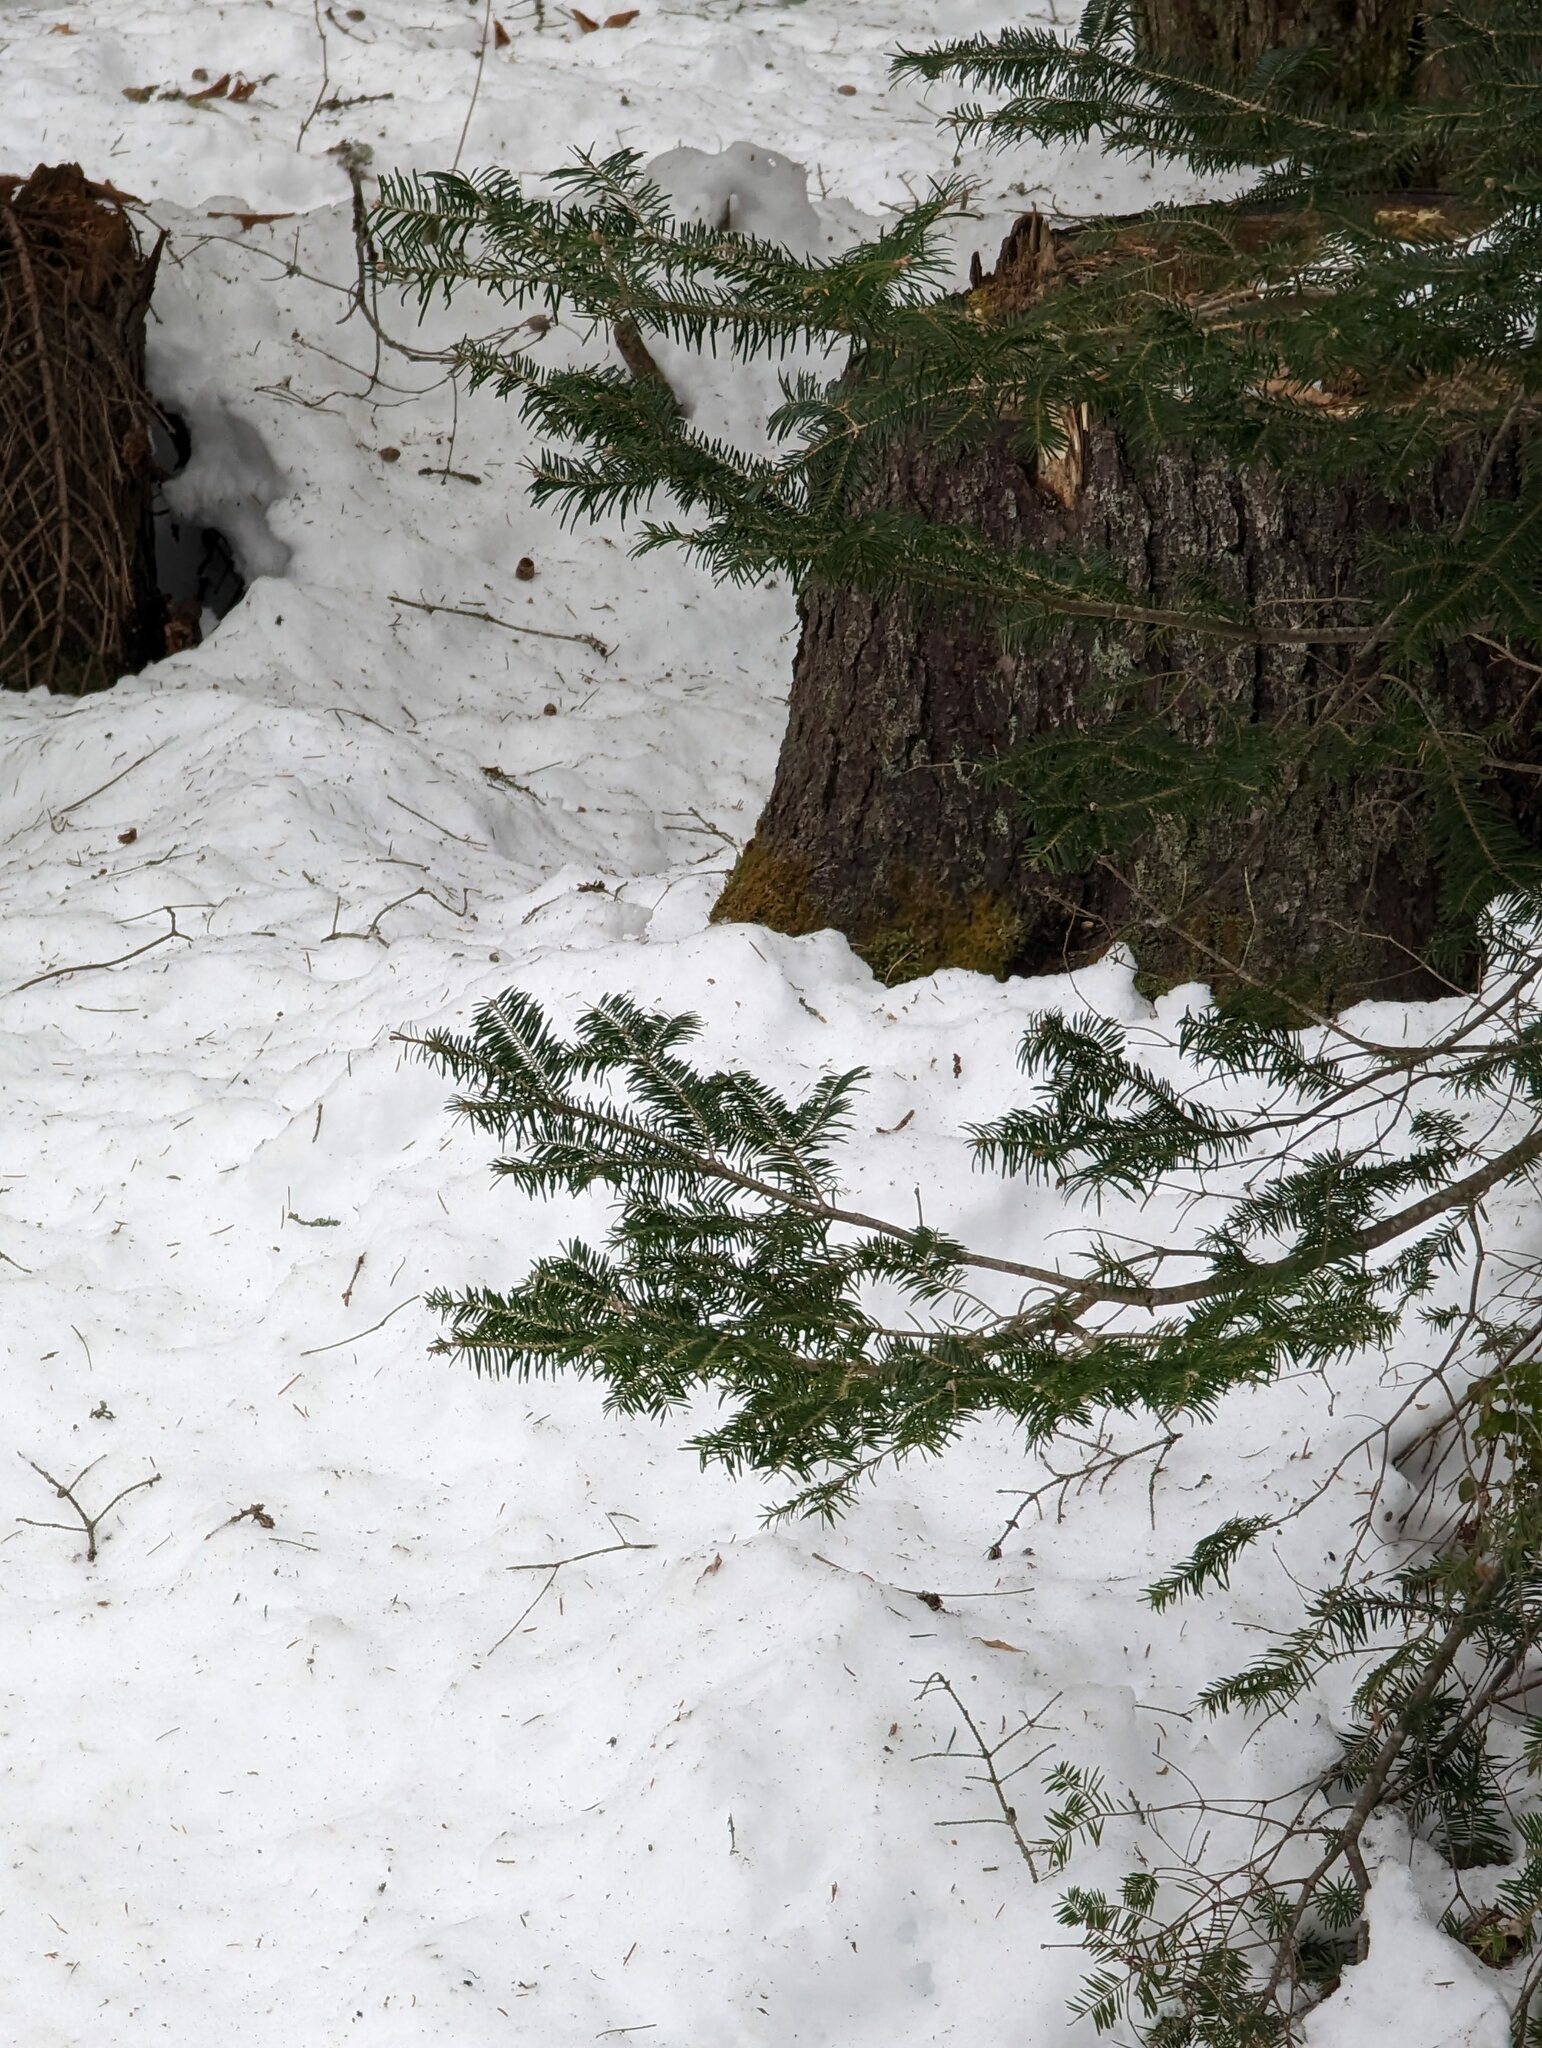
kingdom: Plantae
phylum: Tracheophyta
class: Pinopsida
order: Pinales
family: Pinaceae
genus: Abies
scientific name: Abies balsamea
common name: Balsam fir
